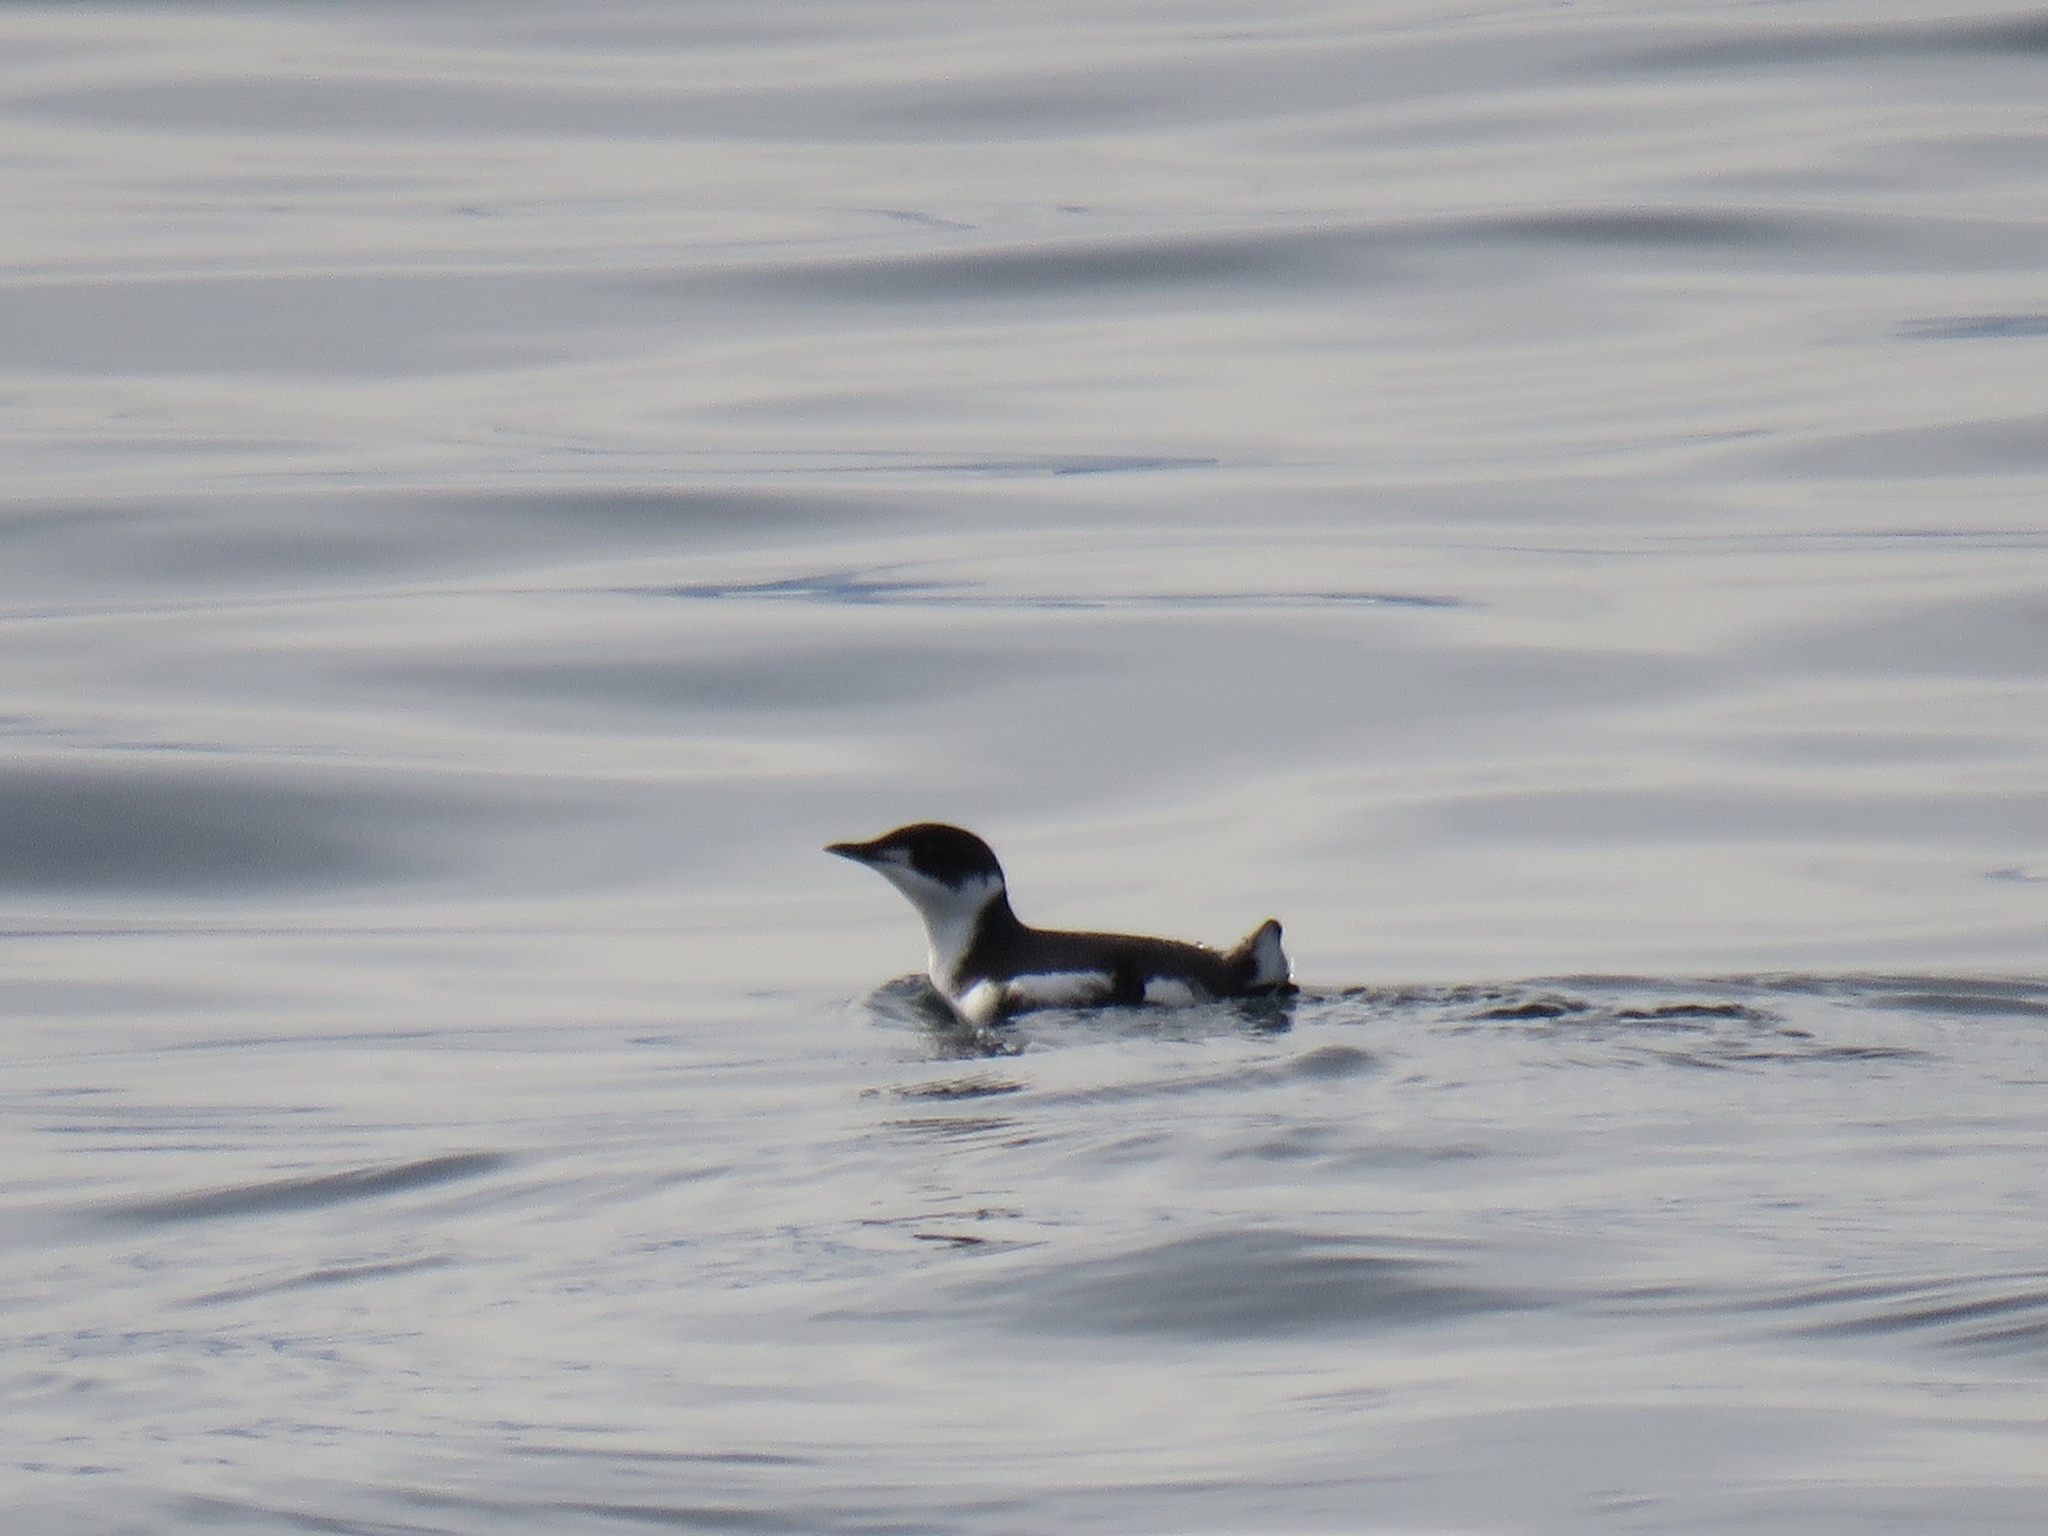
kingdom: Animalia
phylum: Chordata
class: Aves
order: Charadriiformes
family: Alcidae
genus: Brachyramphus
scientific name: Brachyramphus marmoratus
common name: Marbled murrelet
